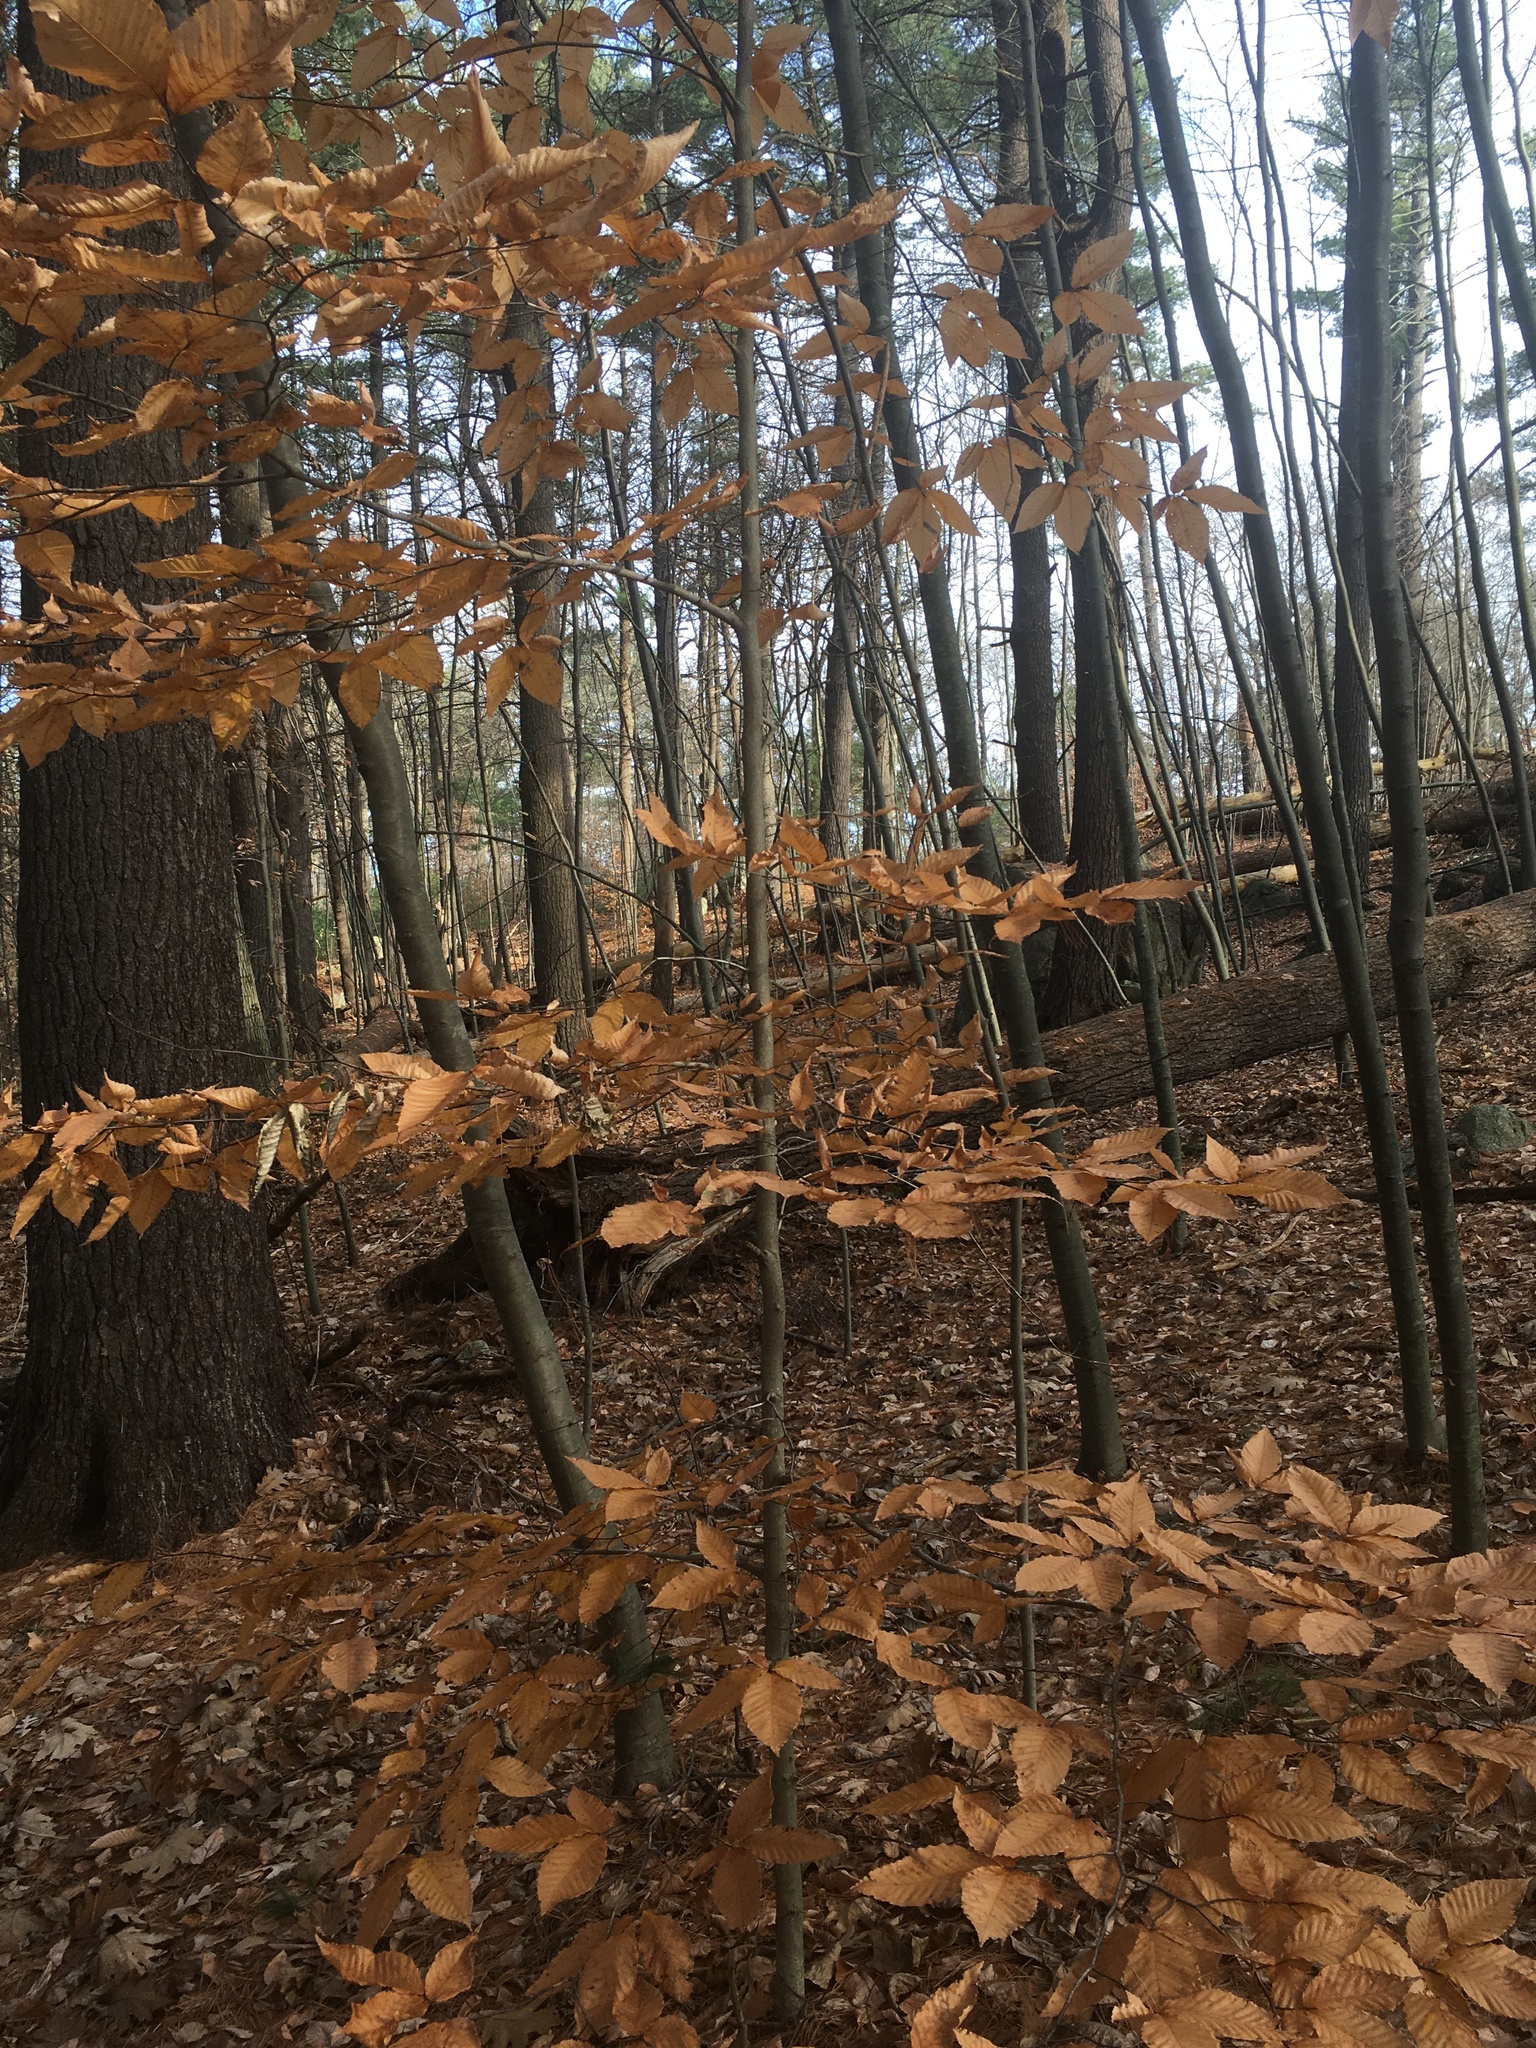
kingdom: Plantae
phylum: Tracheophyta
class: Magnoliopsida
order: Fagales
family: Fagaceae
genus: Fagus
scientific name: Fagus grandifolia
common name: American beech
